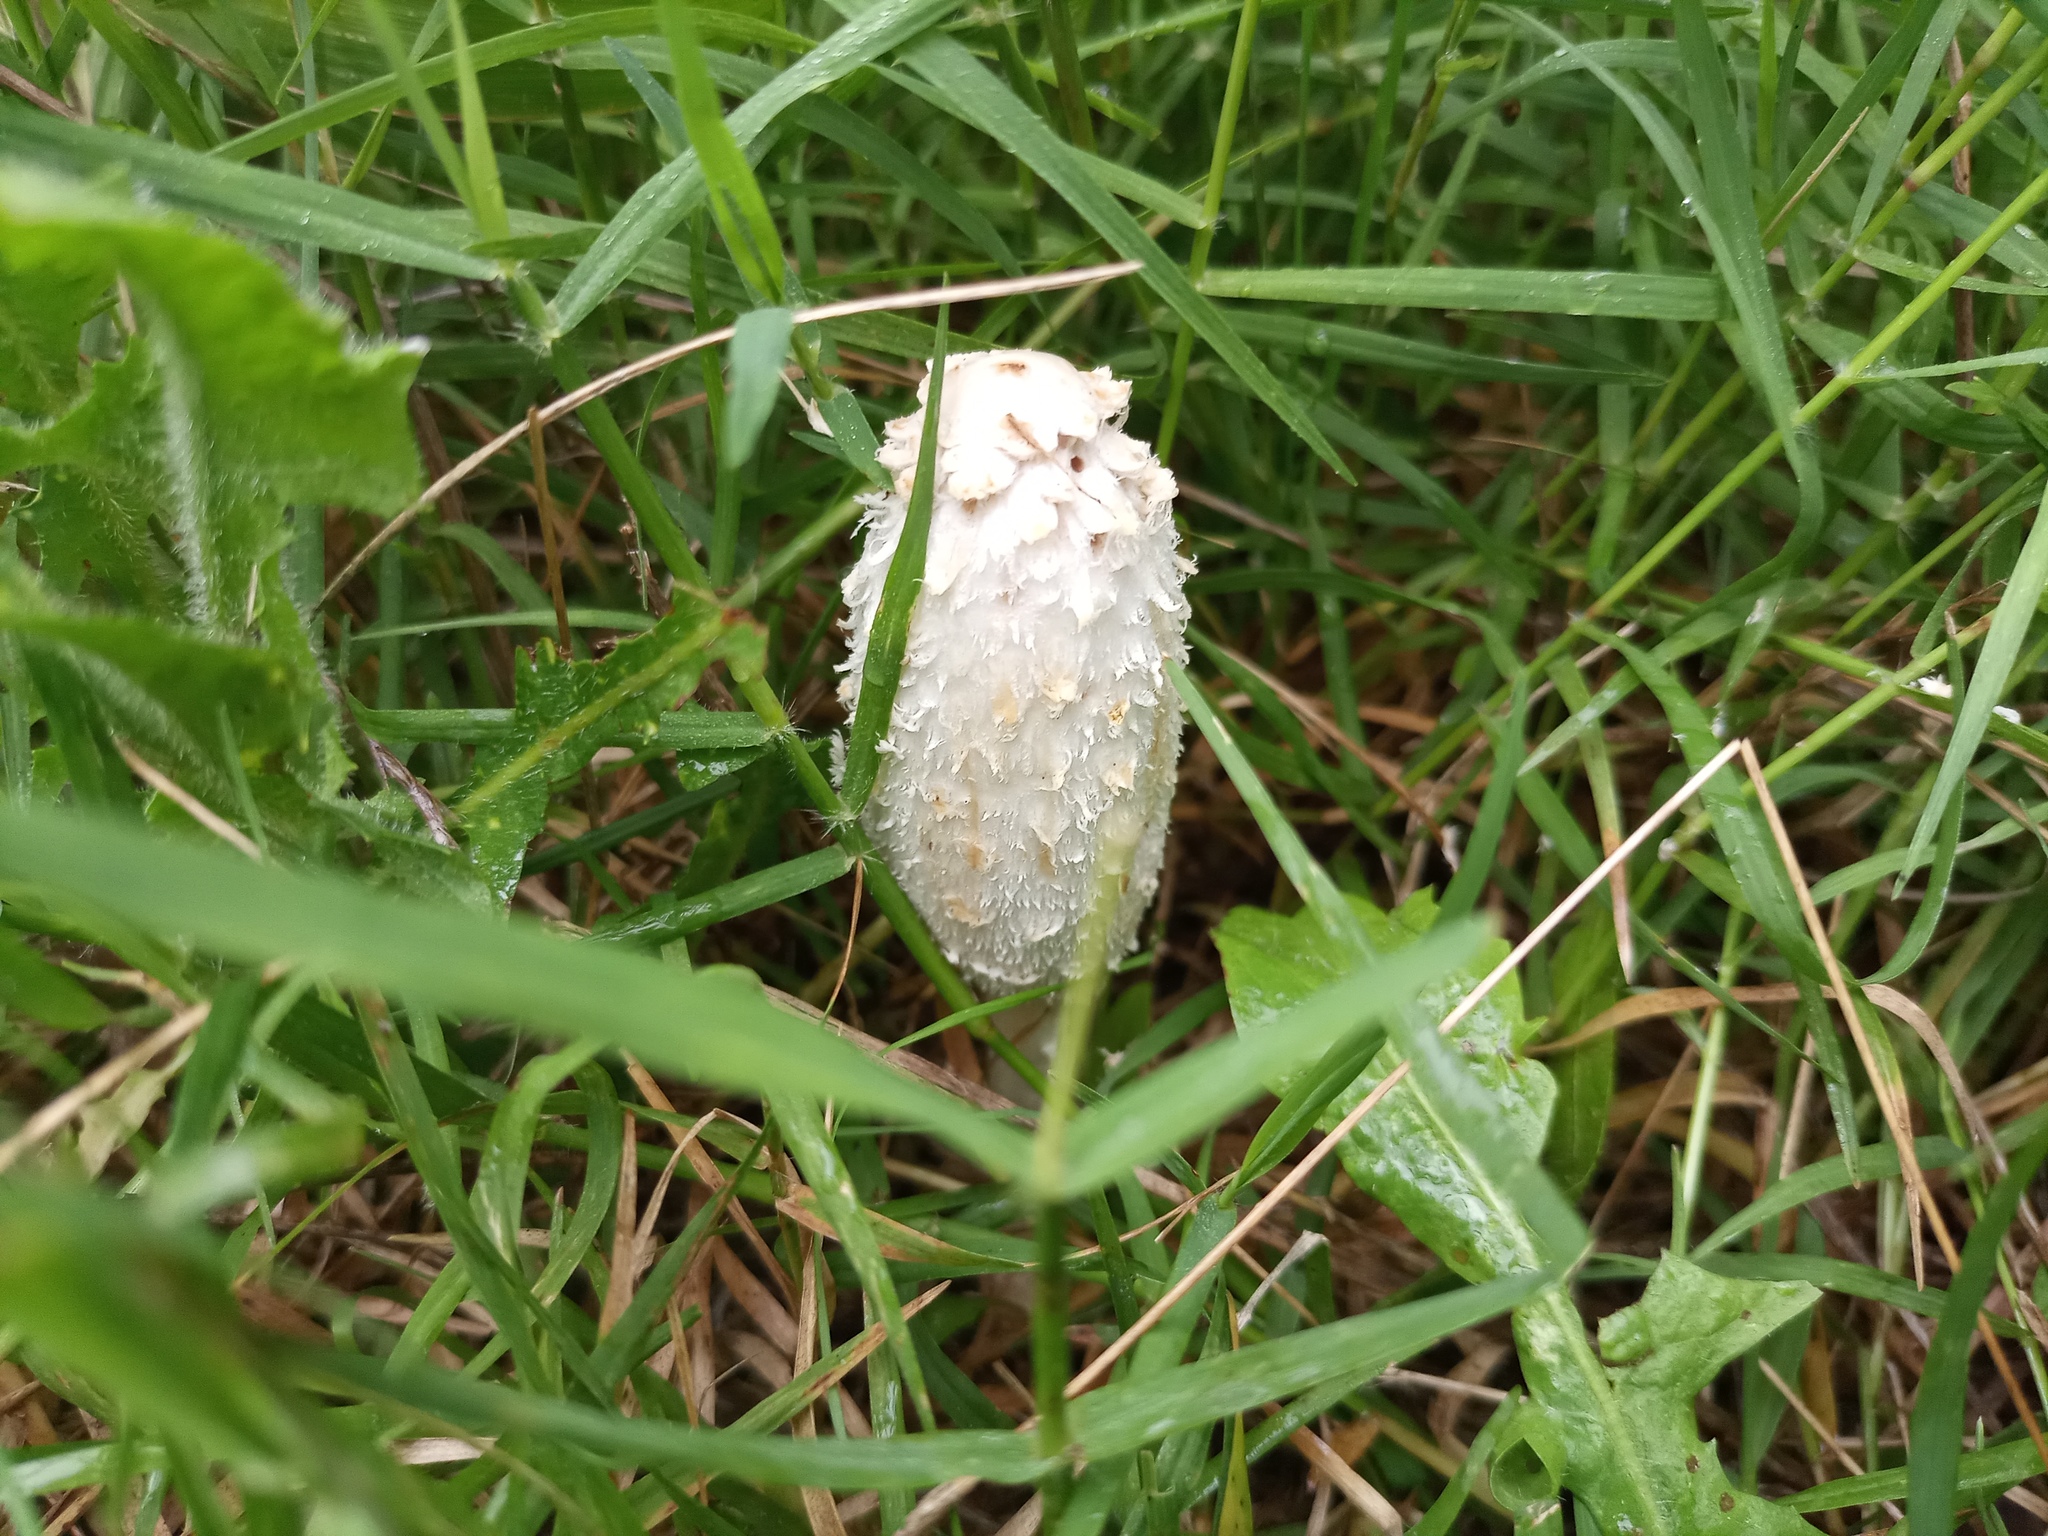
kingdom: Fungi
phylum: Basidiomycota
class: Agaricomycetes
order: Agaricales
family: Agaricaceae
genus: Coprinus
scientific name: Coprinus comatus
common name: Lawyer's wig
